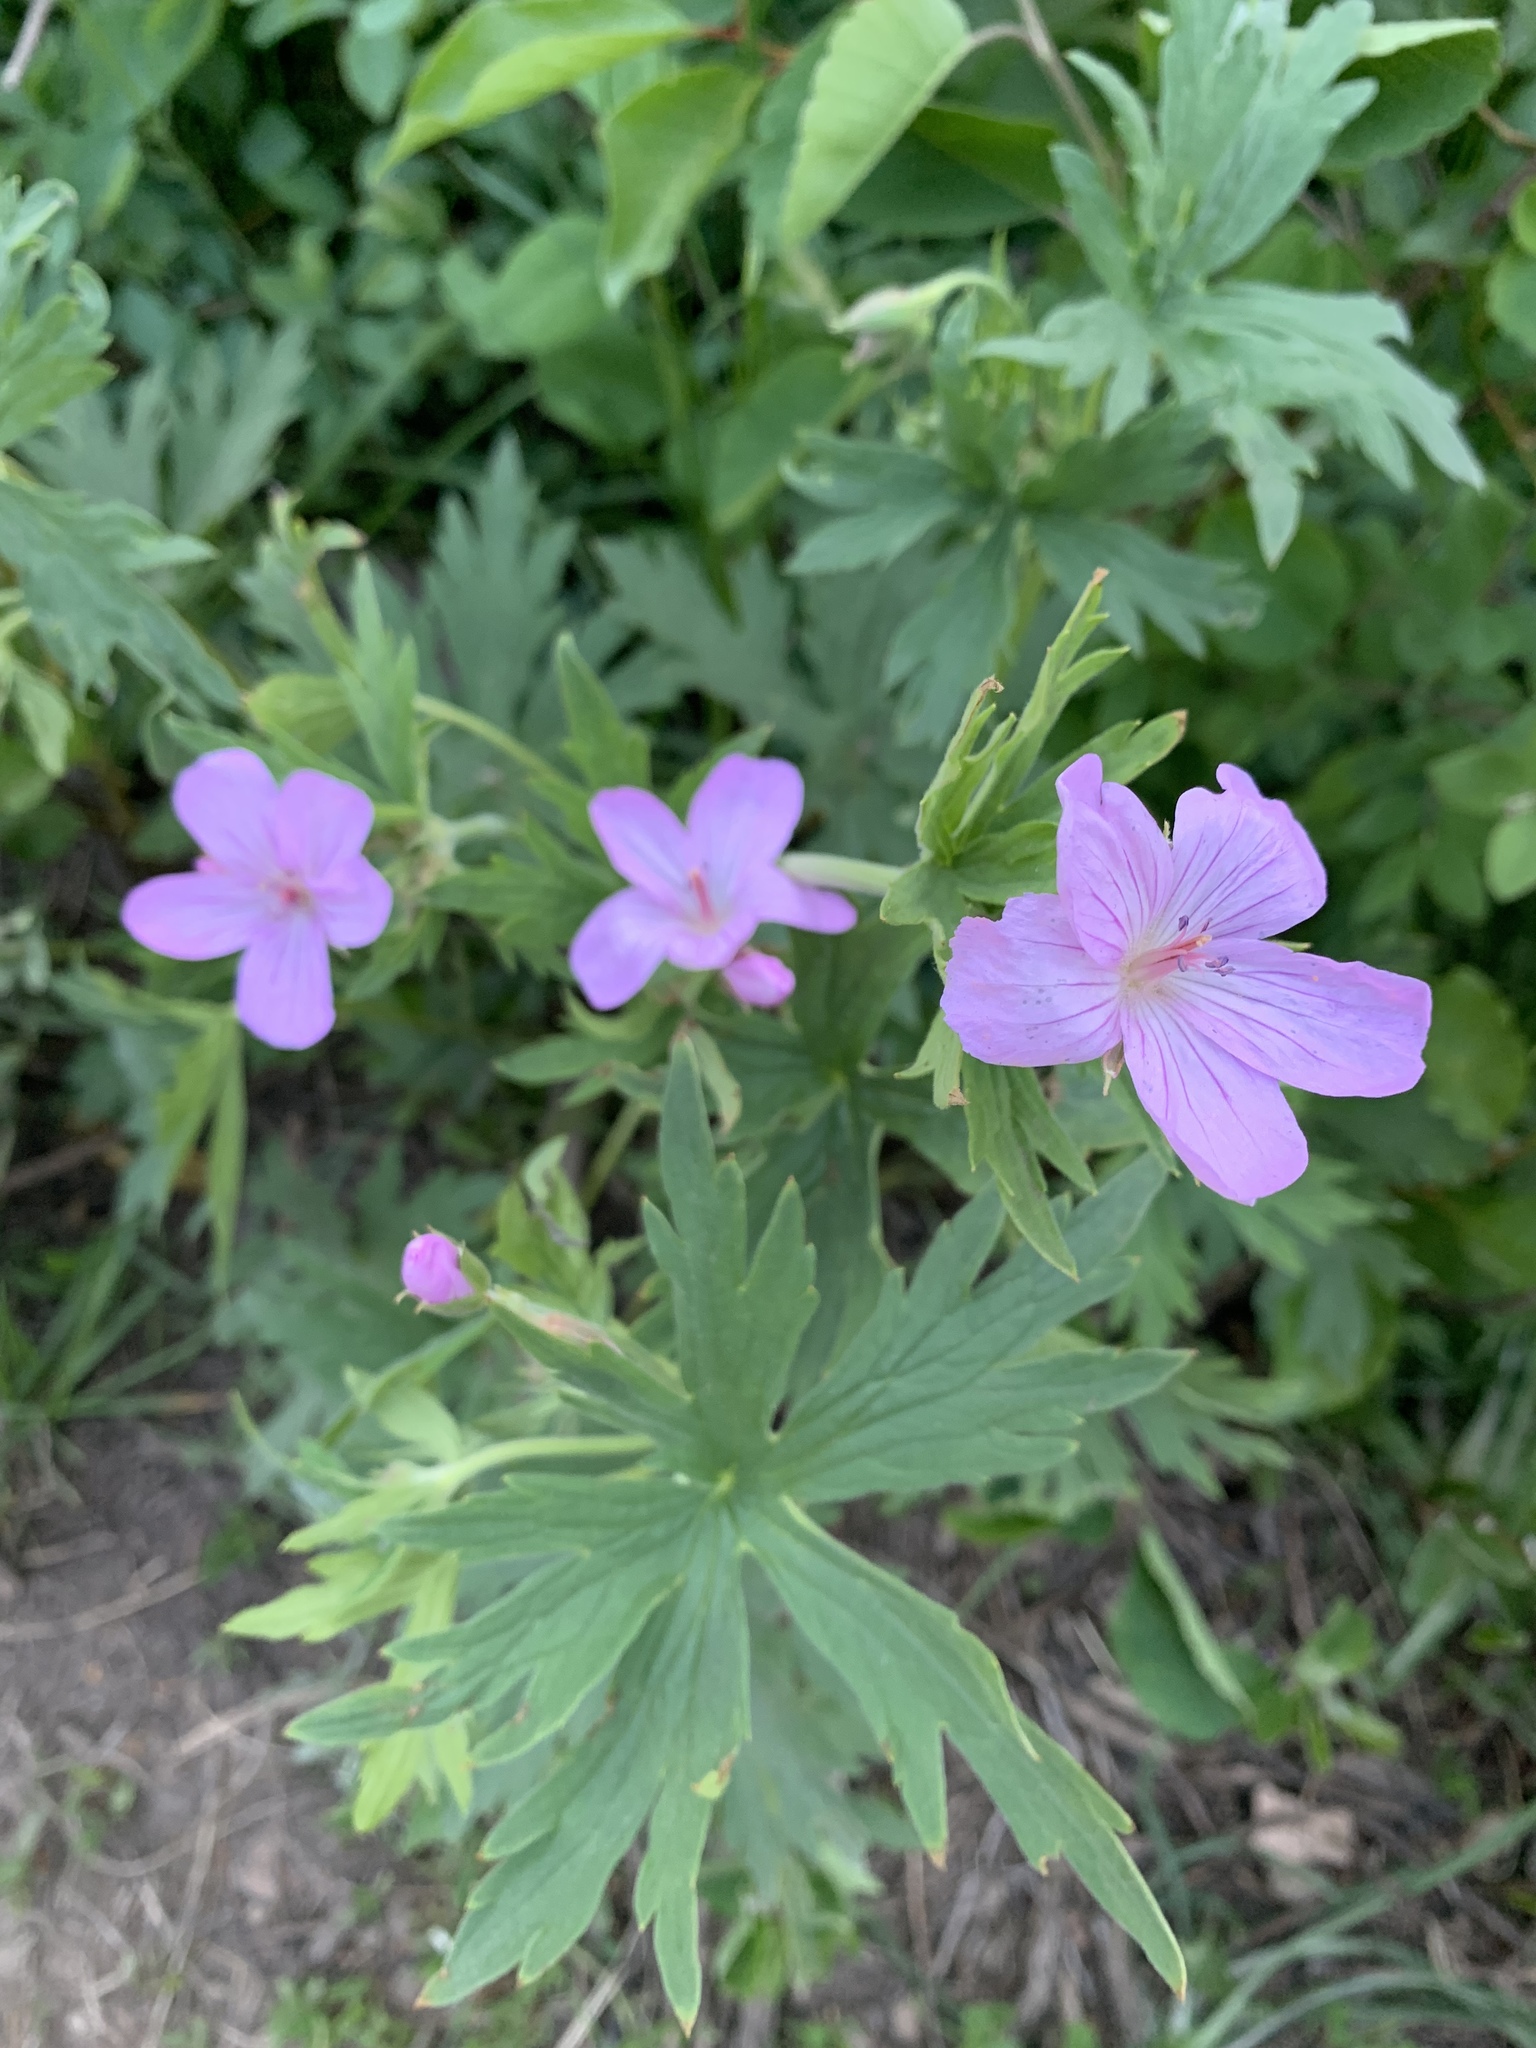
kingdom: Plantae
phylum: Tracheophyta
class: Magnoliopsida
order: Geraniales
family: Geraniaceae
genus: Geranium
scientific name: Geranium viscosissimum
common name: Purple geranium
